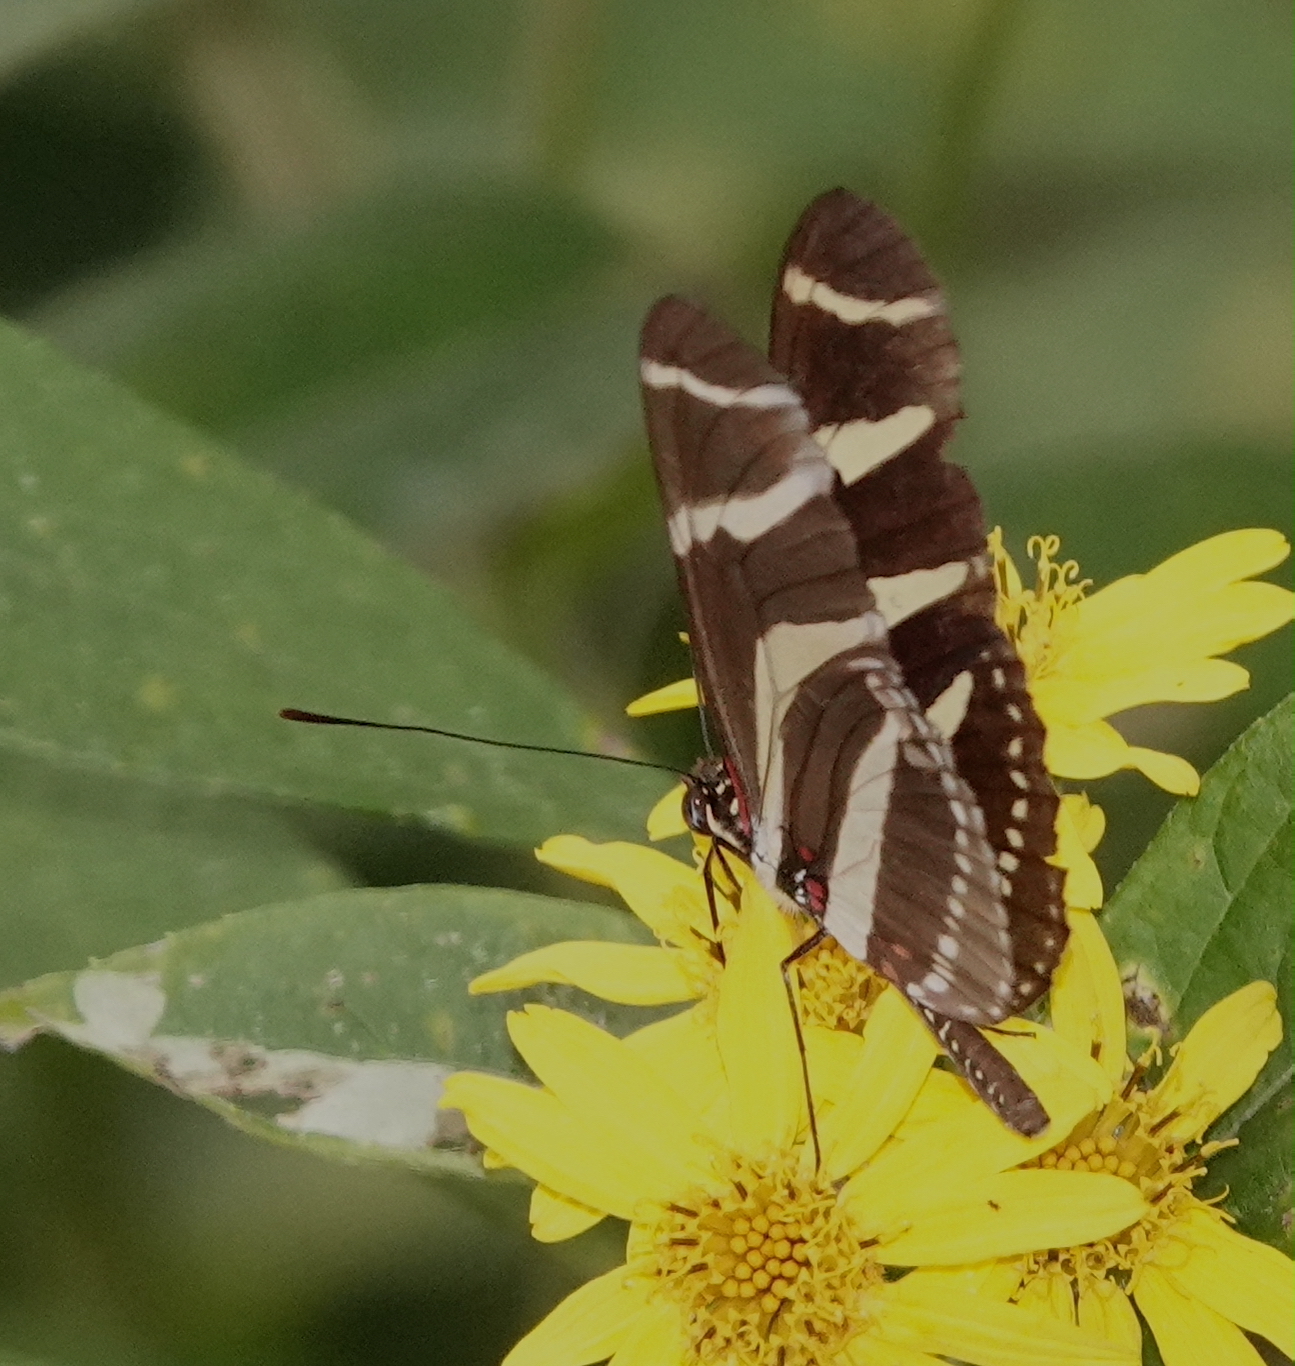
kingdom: Animalia
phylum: Arthropoda
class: Insecta
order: Lepidoptera
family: Nymphalidae
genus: Heliconius
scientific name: Heliconius charithonia
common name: Zebra long wing
